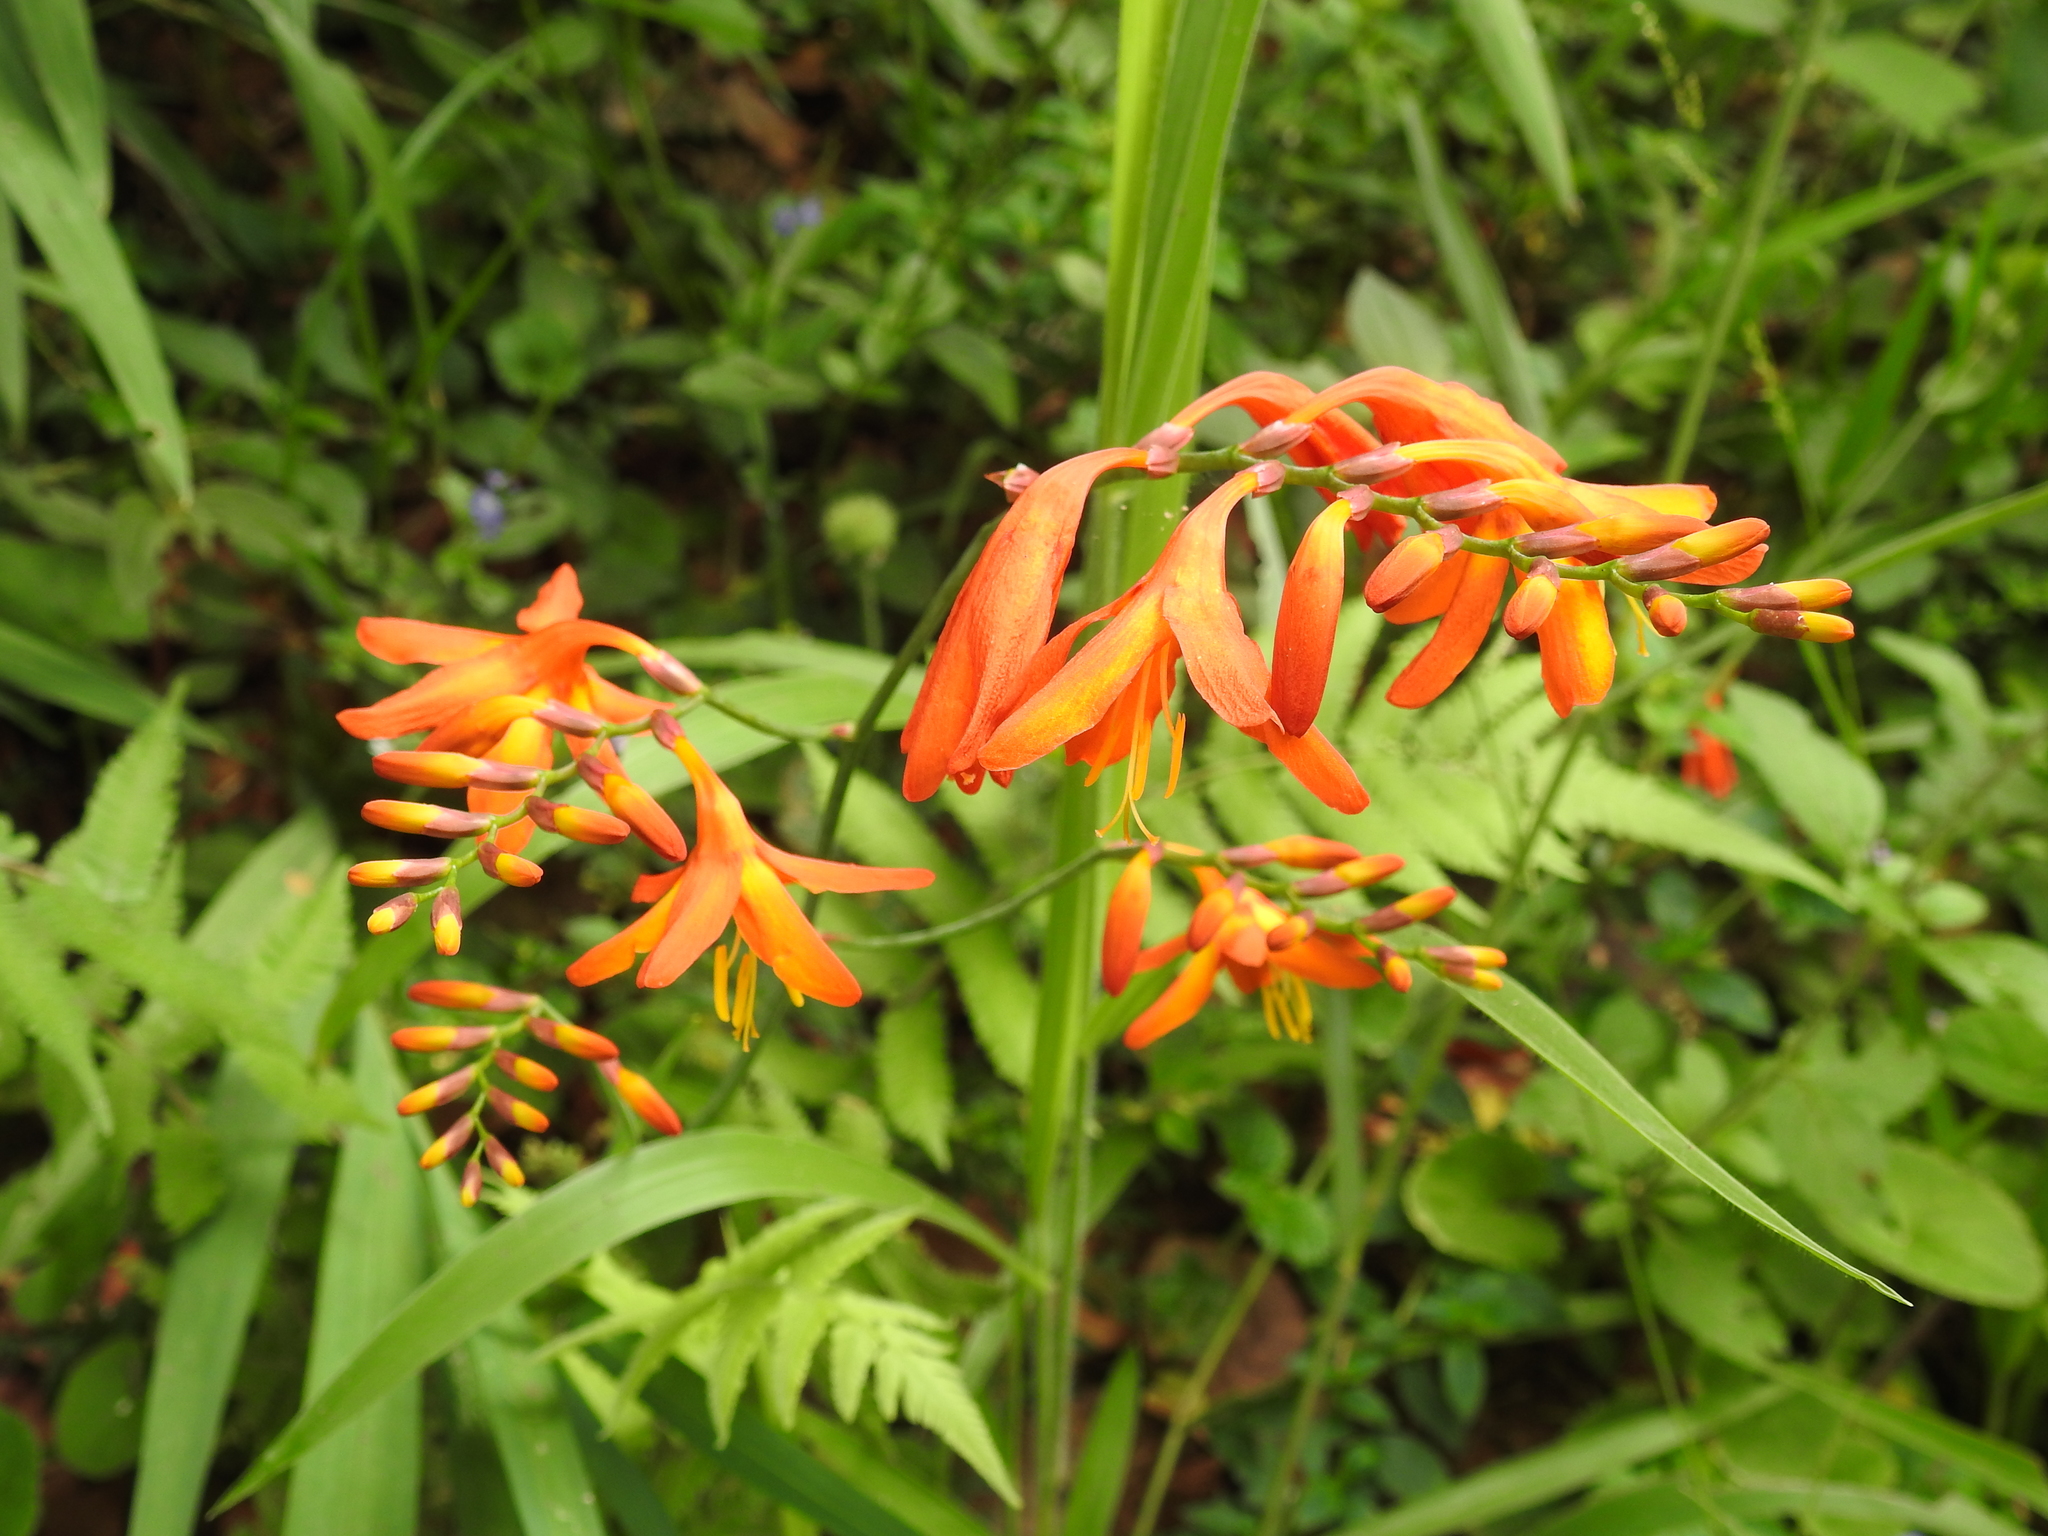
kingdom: Plantae
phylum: Tracheophyta
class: Liliopsida
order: Asparagales
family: Iridaceae
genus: Crocosmia
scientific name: Crocosmia crocosmiiflora
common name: Montbretia
